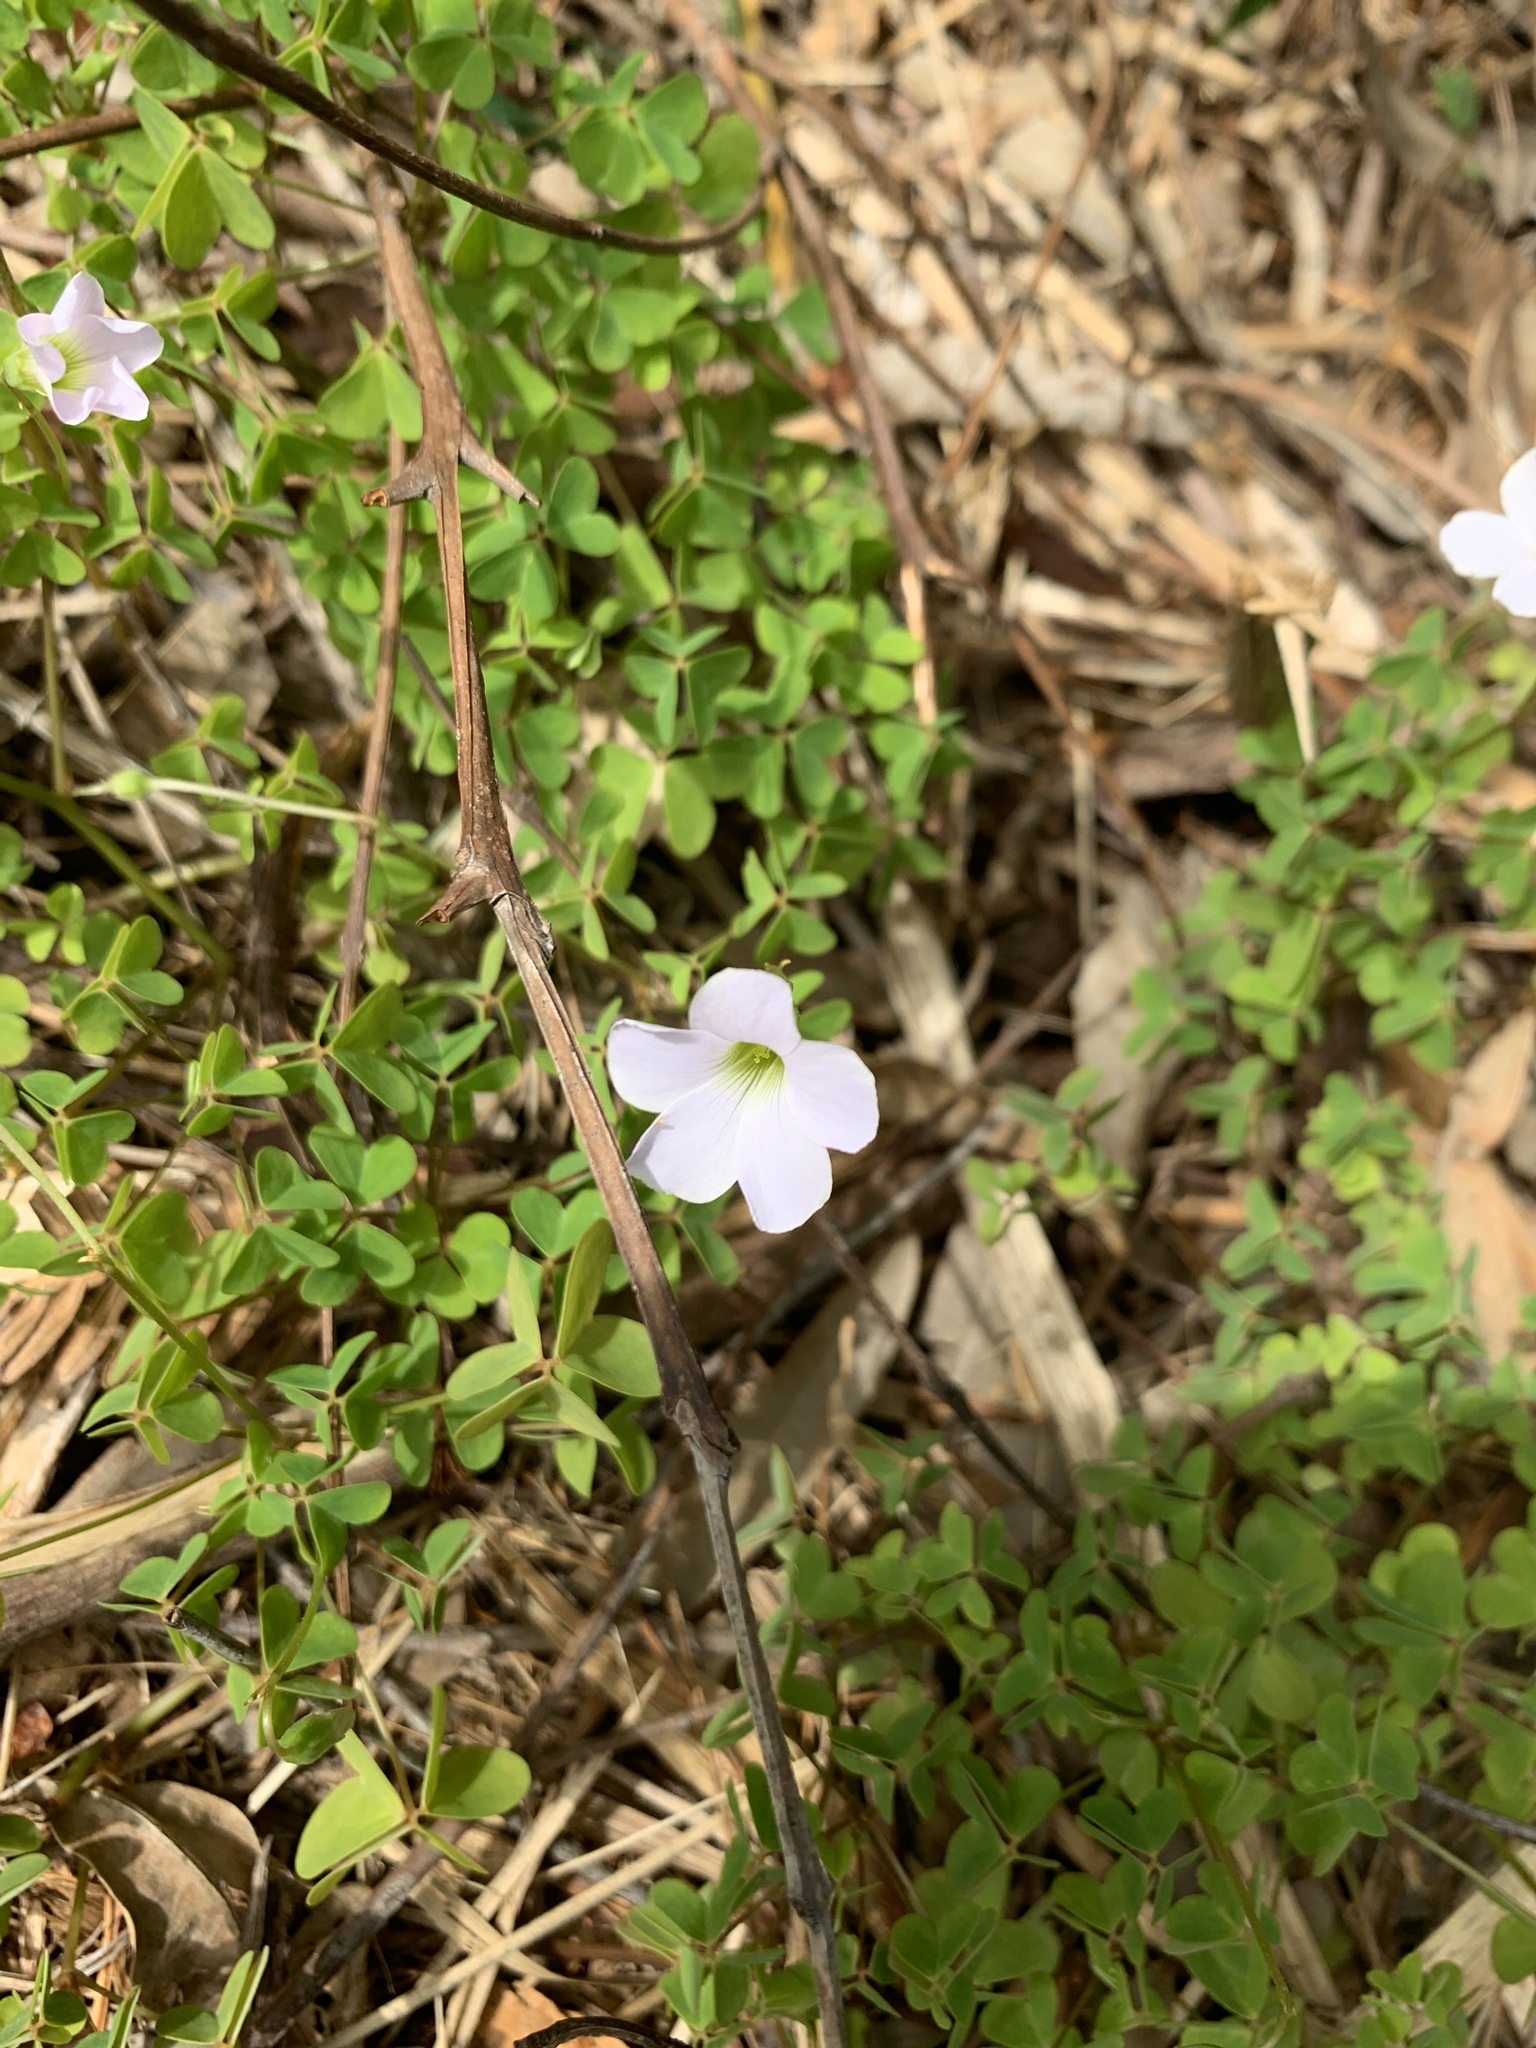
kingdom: Plantae
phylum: Tracheophyta
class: Magnoliopsida
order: Oxalidales
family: Oxalidaceae
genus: Oxalis
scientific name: Oxalis incarnata
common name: Pale pink-sorrel
